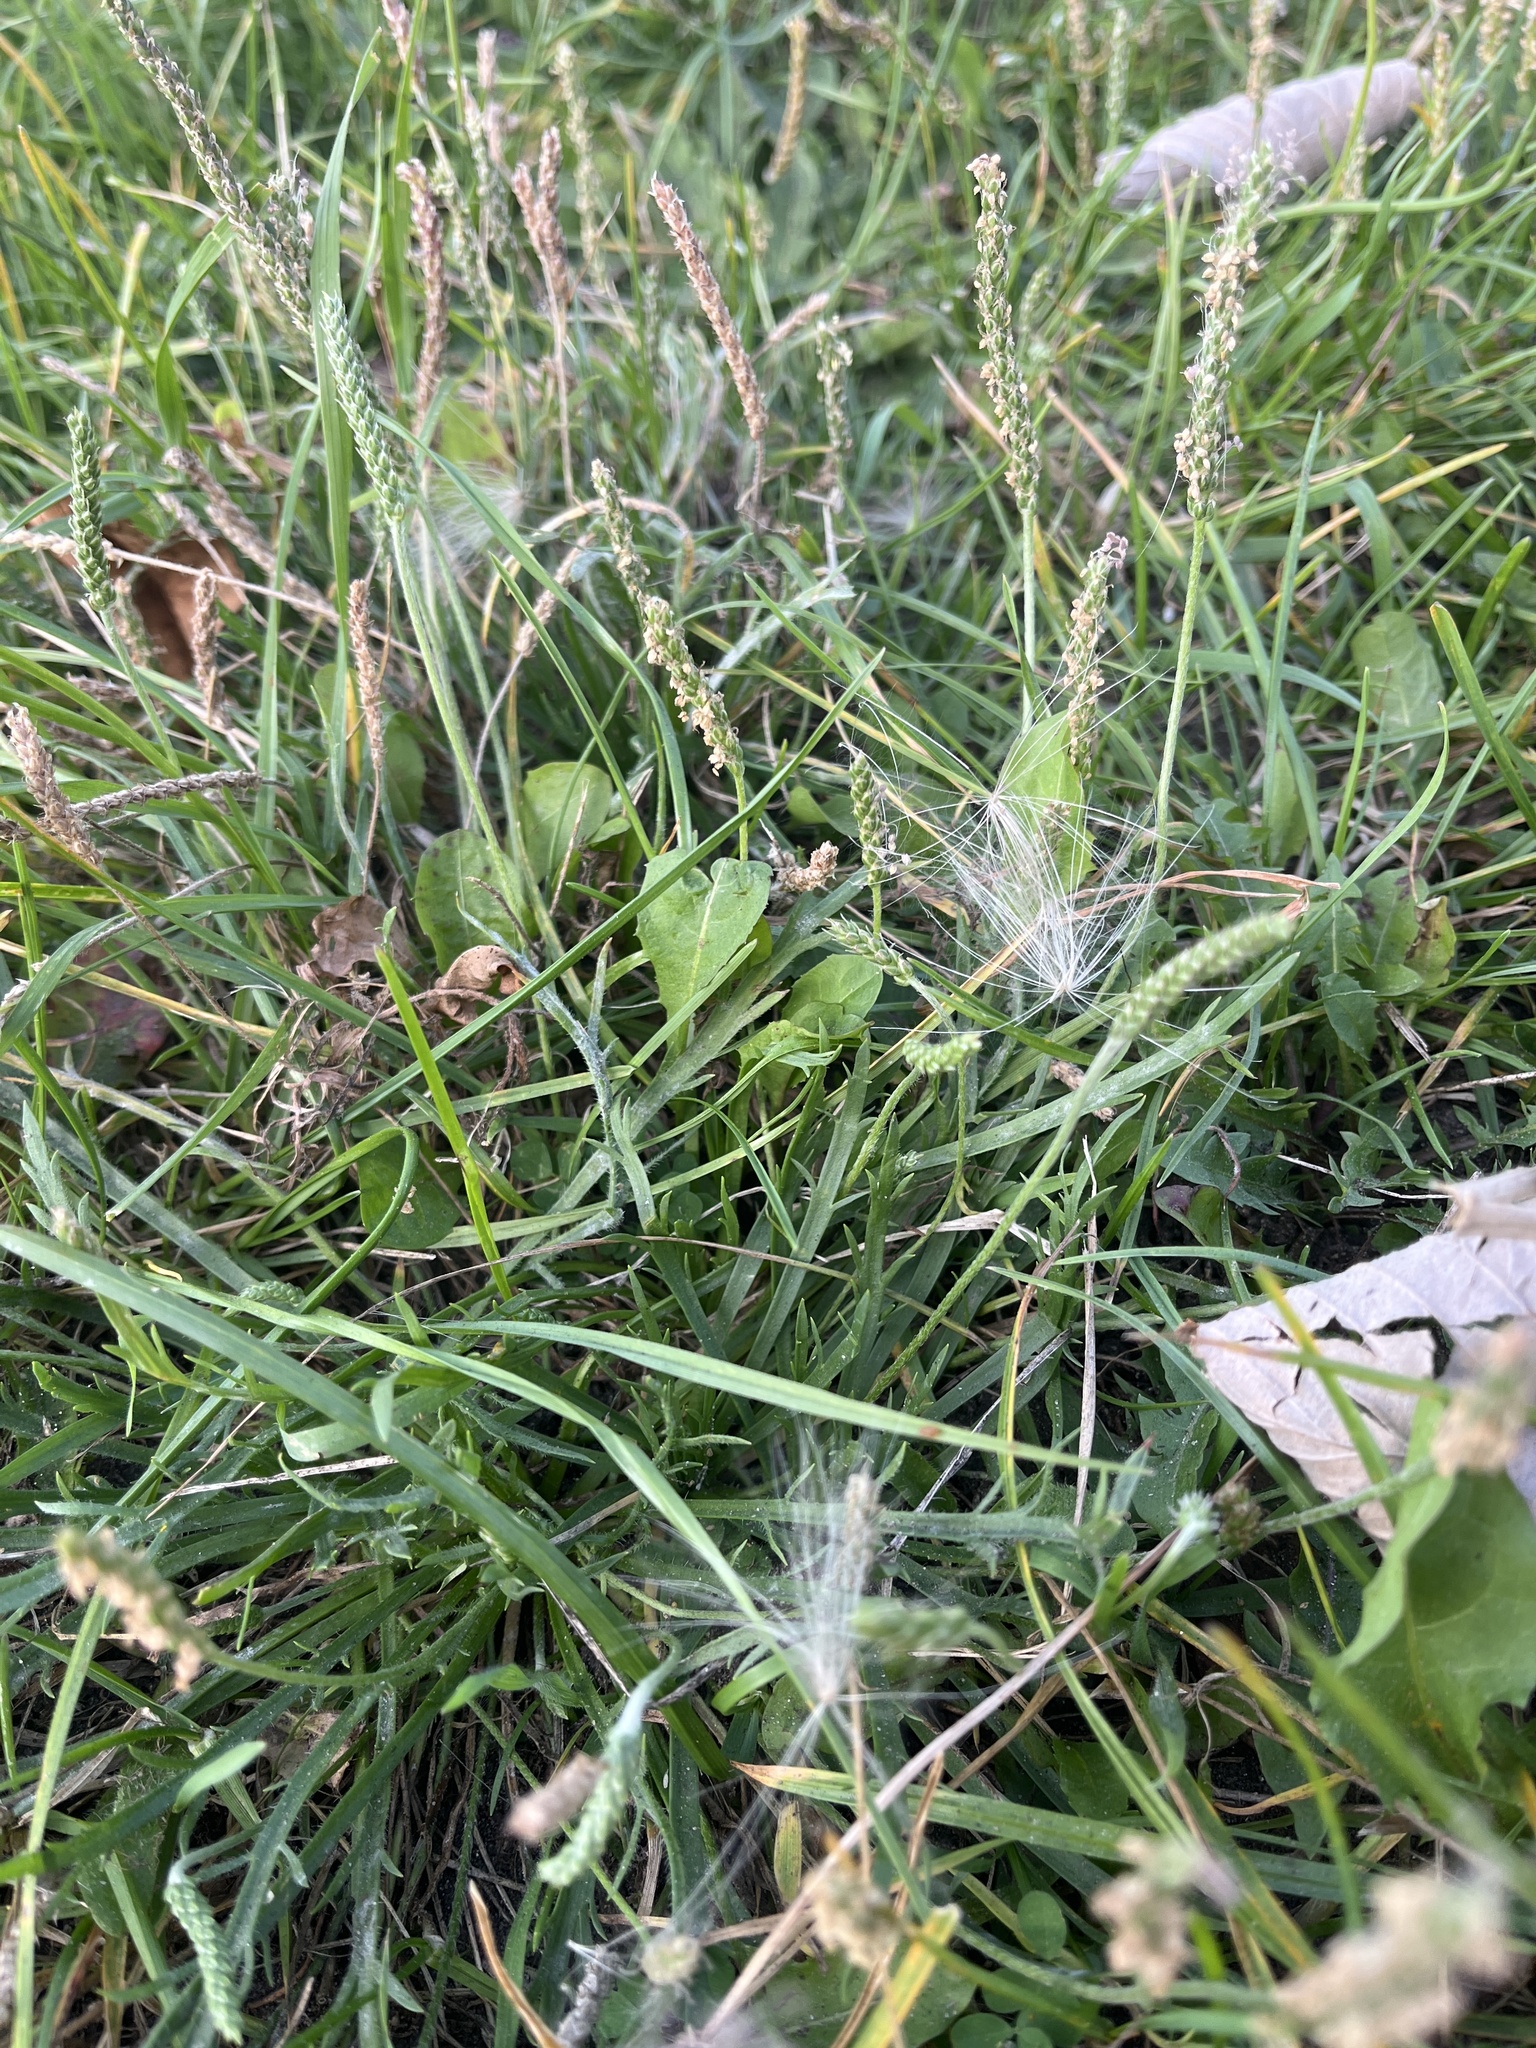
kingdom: Plantae
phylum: Tracheophyta
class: Magnoliopsida
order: Lamiales
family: Plantaginaceae
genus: Plantago
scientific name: Plantago coronopus
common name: Buck's-horn plantain
